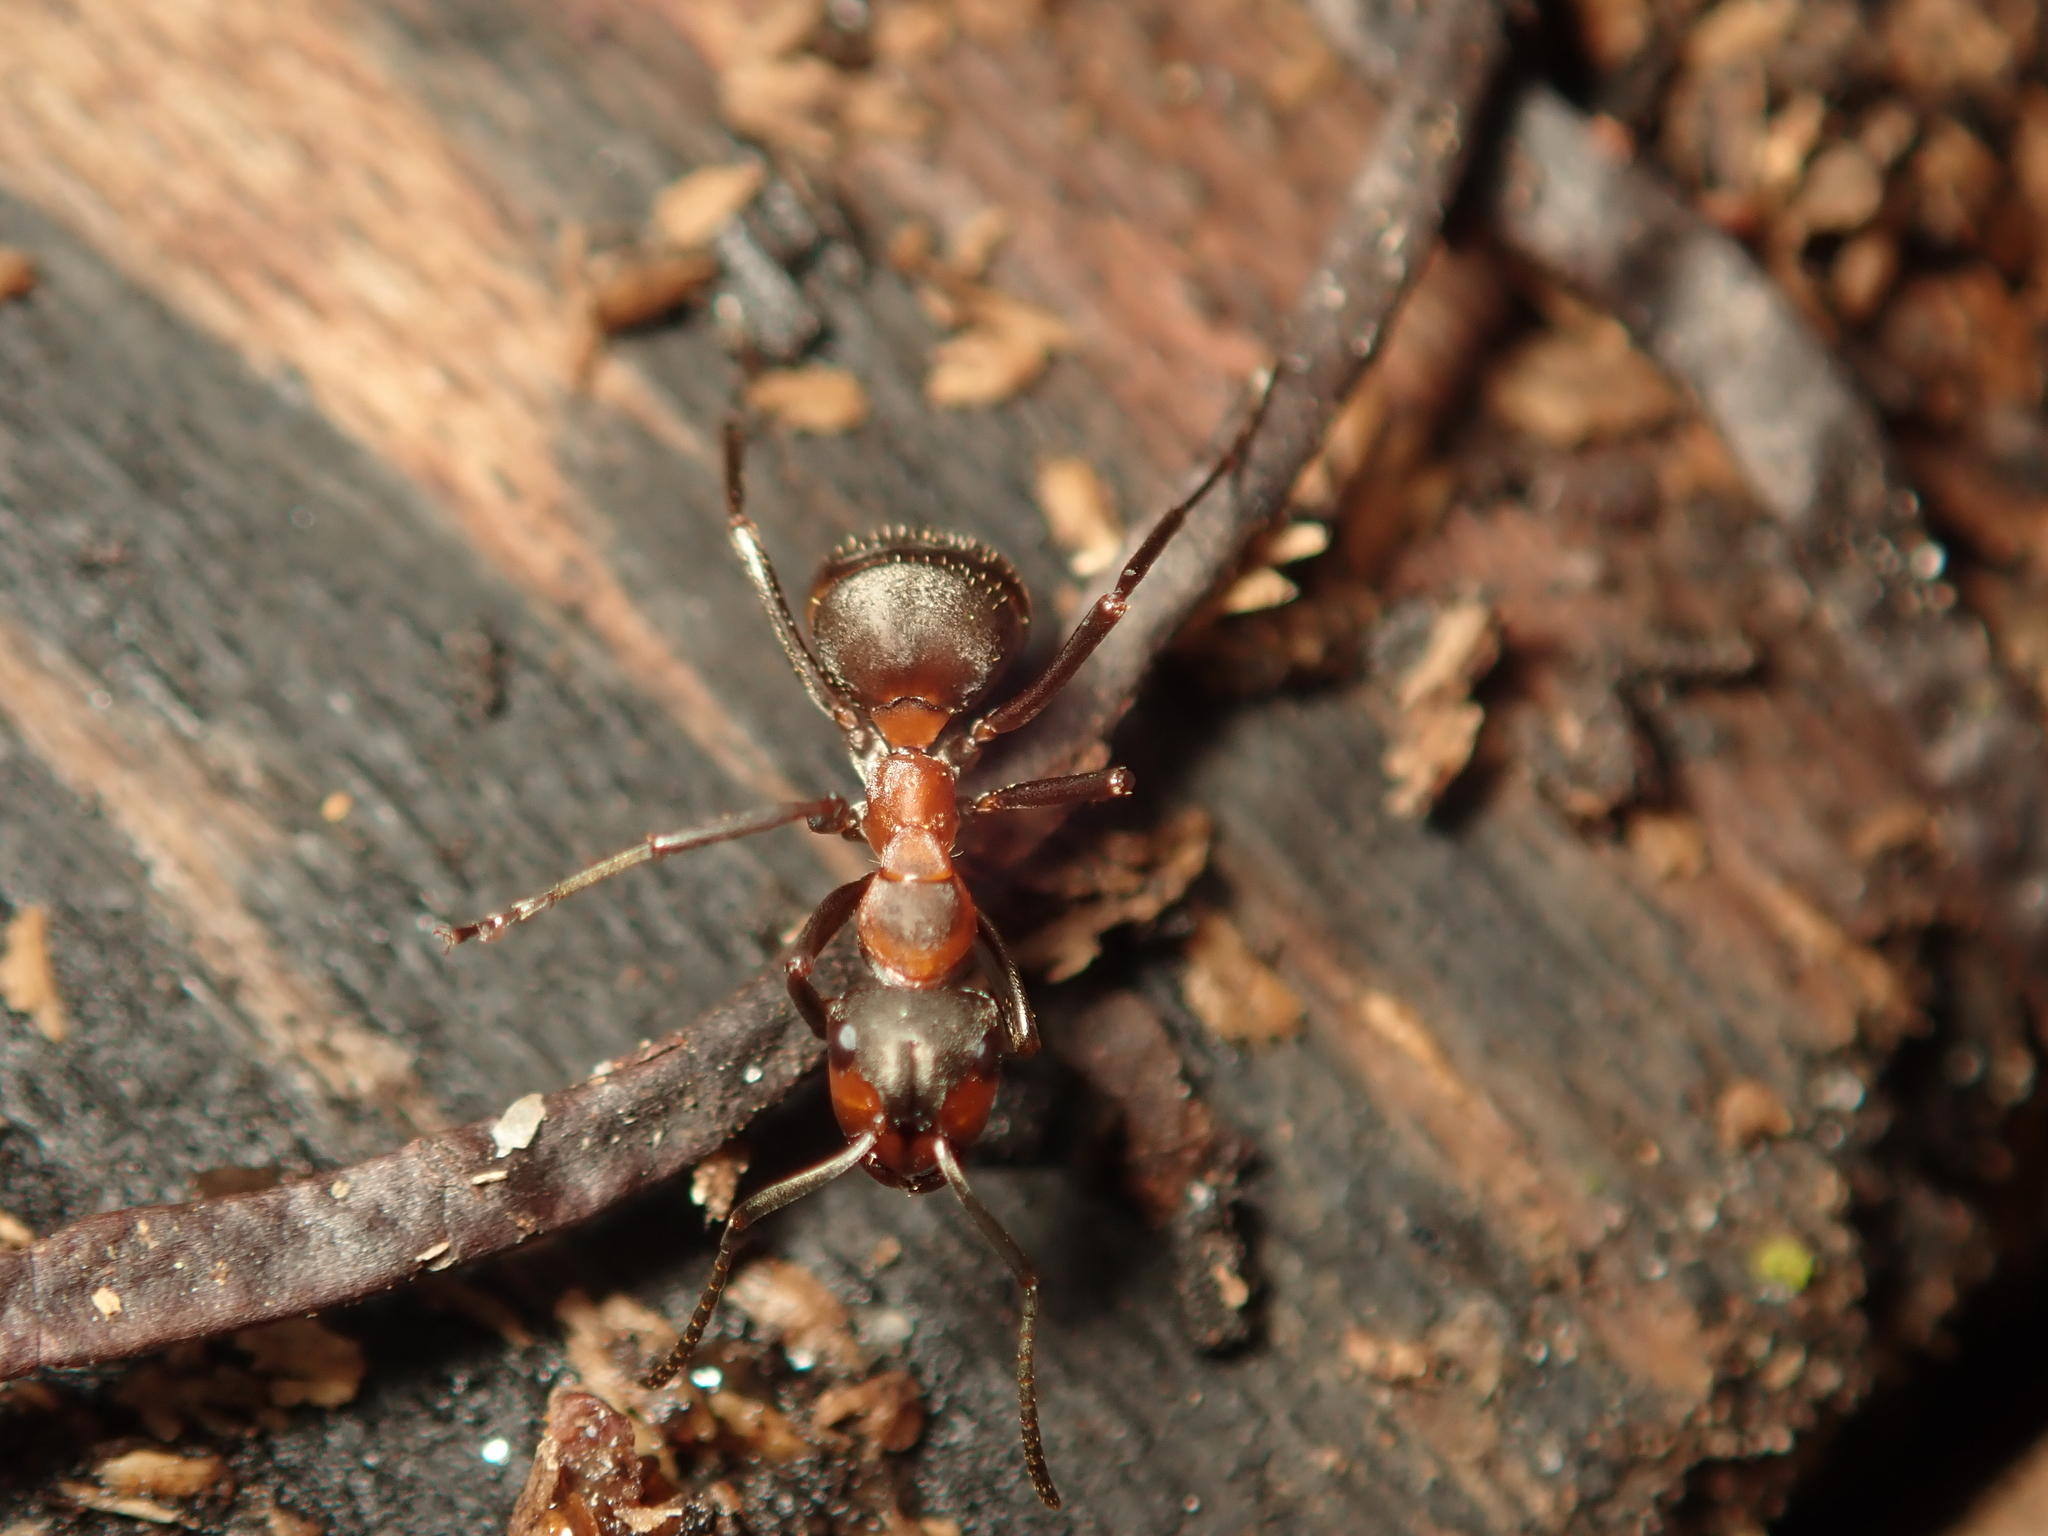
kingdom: Animalia
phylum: Arthropoda
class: Insecta
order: Hymenoptera
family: Formicidae
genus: Formica
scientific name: Formica rufa
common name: Red wood ant
